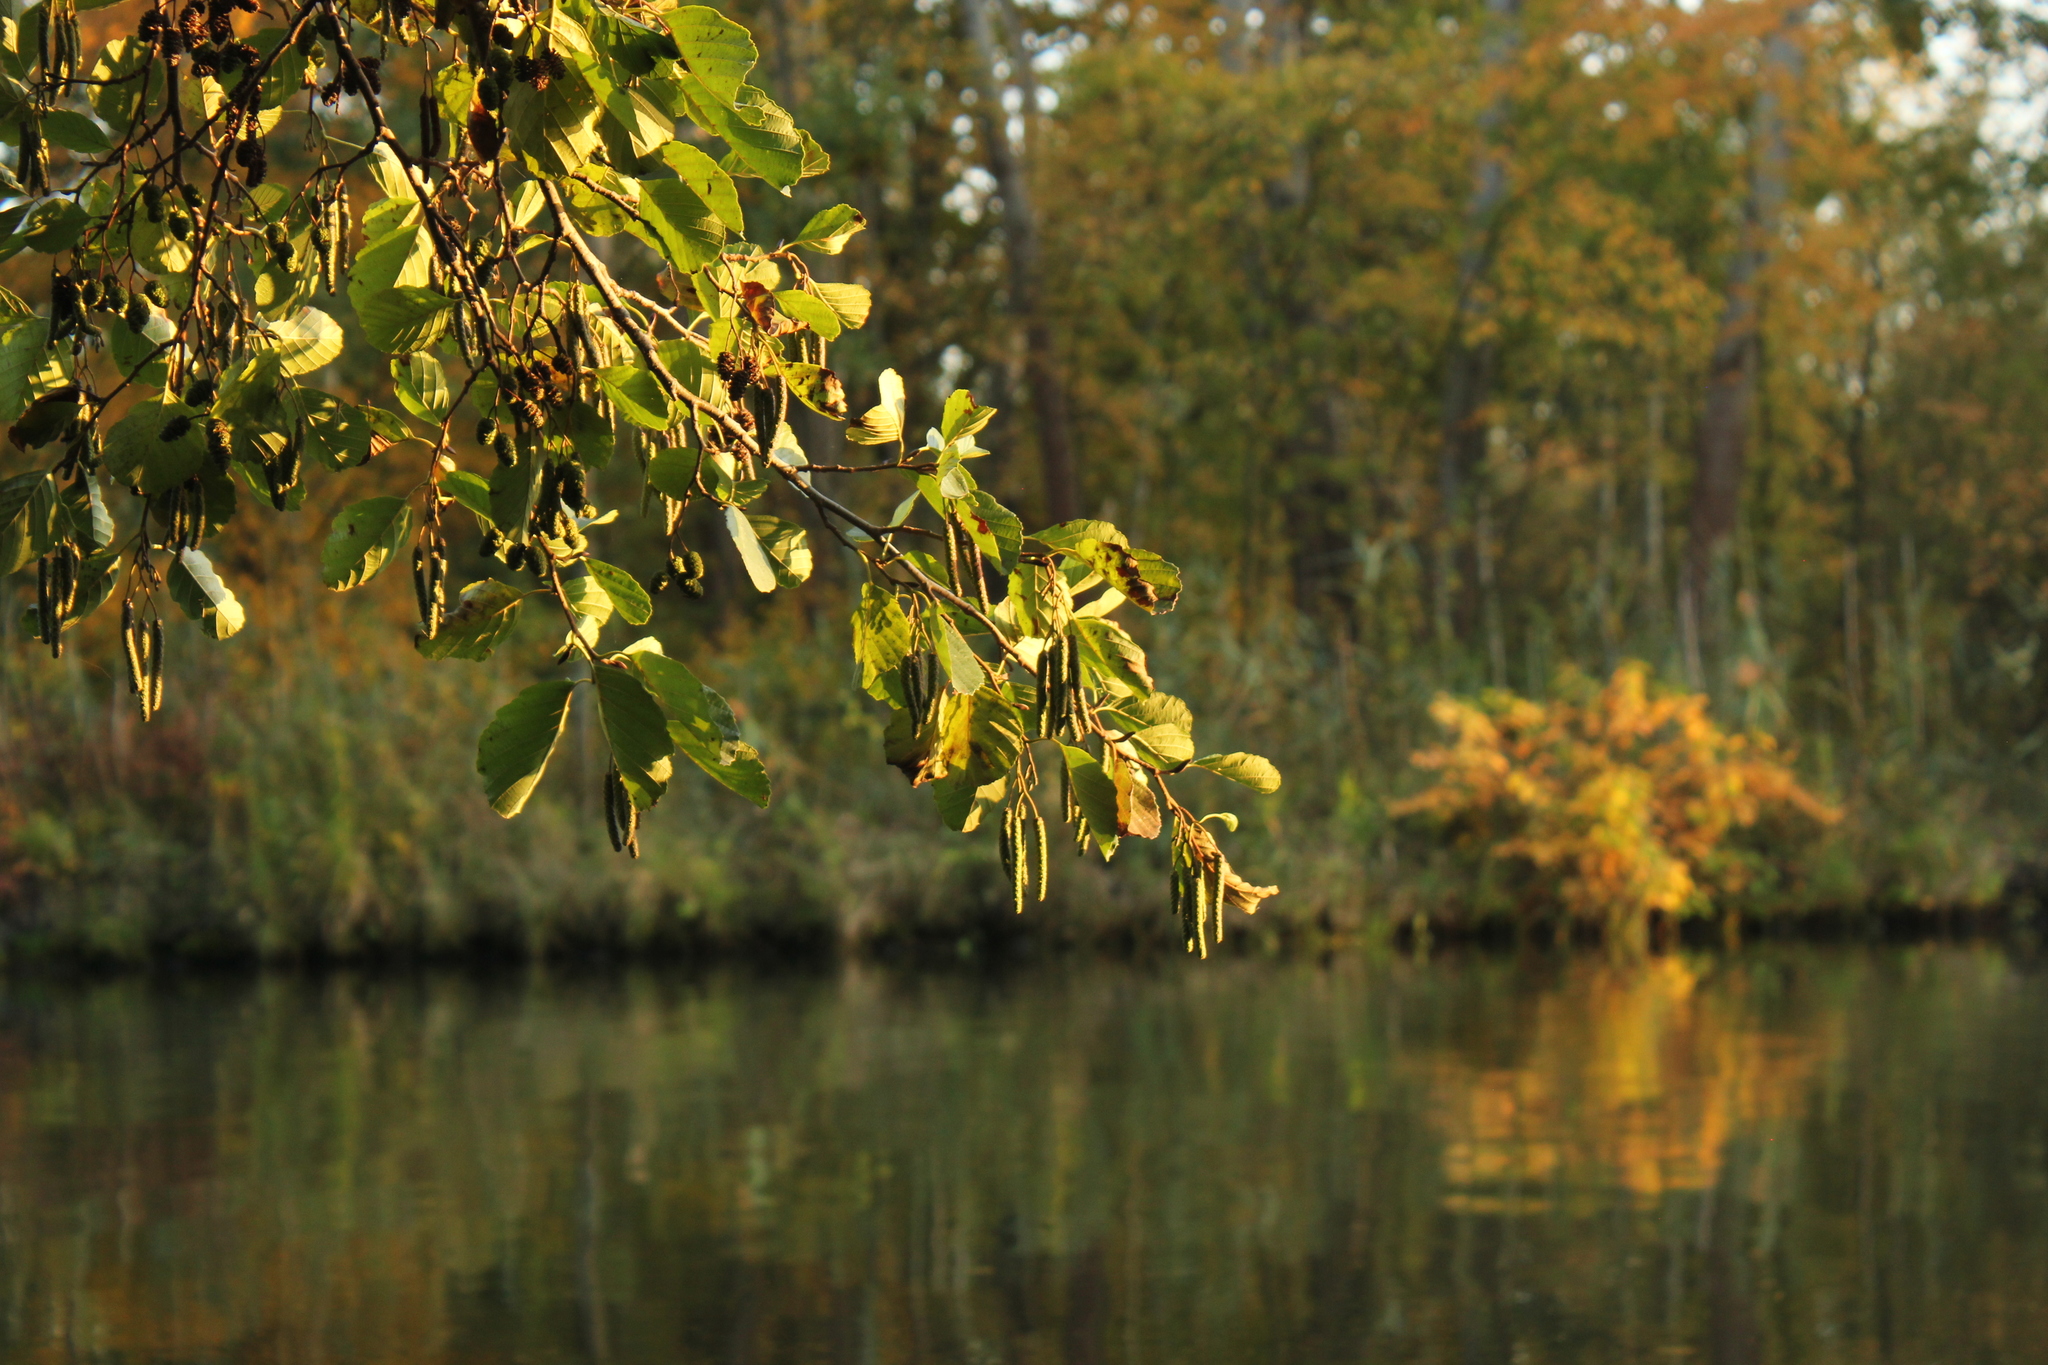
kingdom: Plantae
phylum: Tracheophyta
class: Magnoliopsida
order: Fagales
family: Betulaceae
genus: Alnus
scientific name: Alnus glutinosa
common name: Black alder
